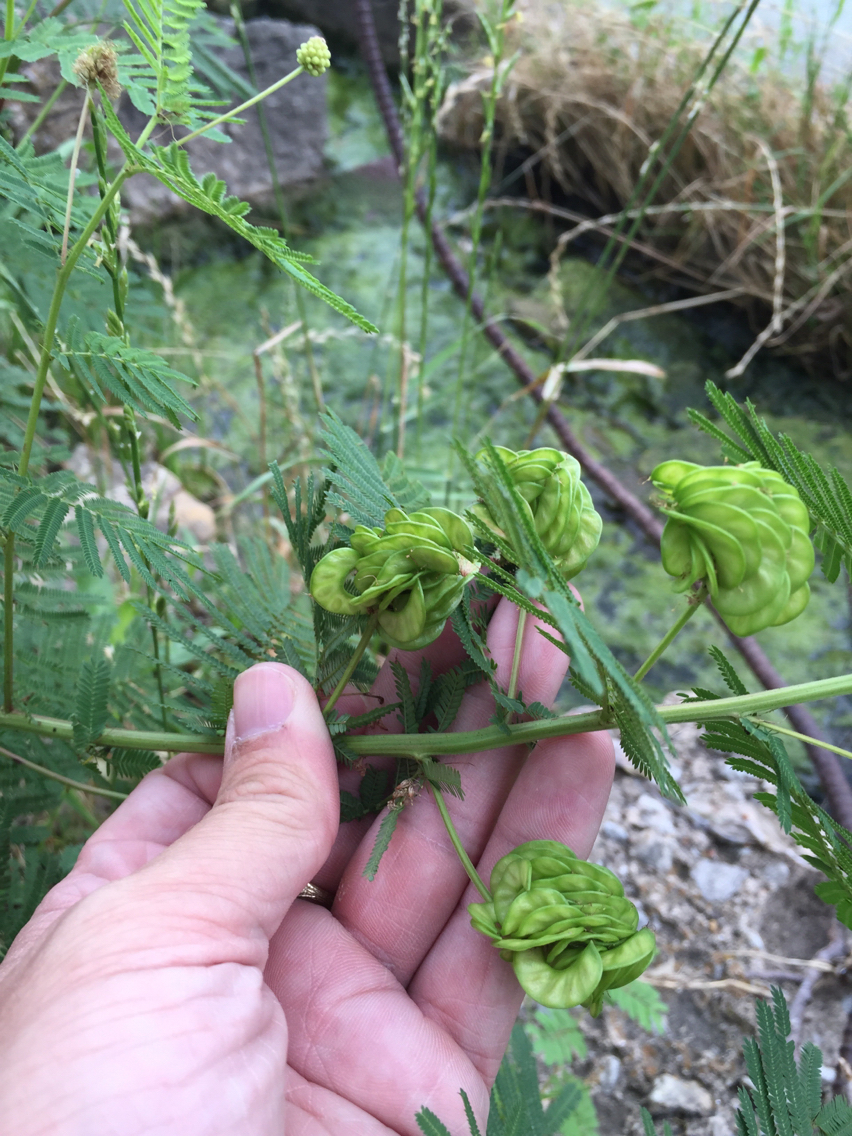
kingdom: Plantae
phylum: Tracheophyta
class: Magnoliopsida
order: Fabales
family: Fabaceae
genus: Desmanthus
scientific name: Desmanthus illinoensis
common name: Illinois bundle-flower
